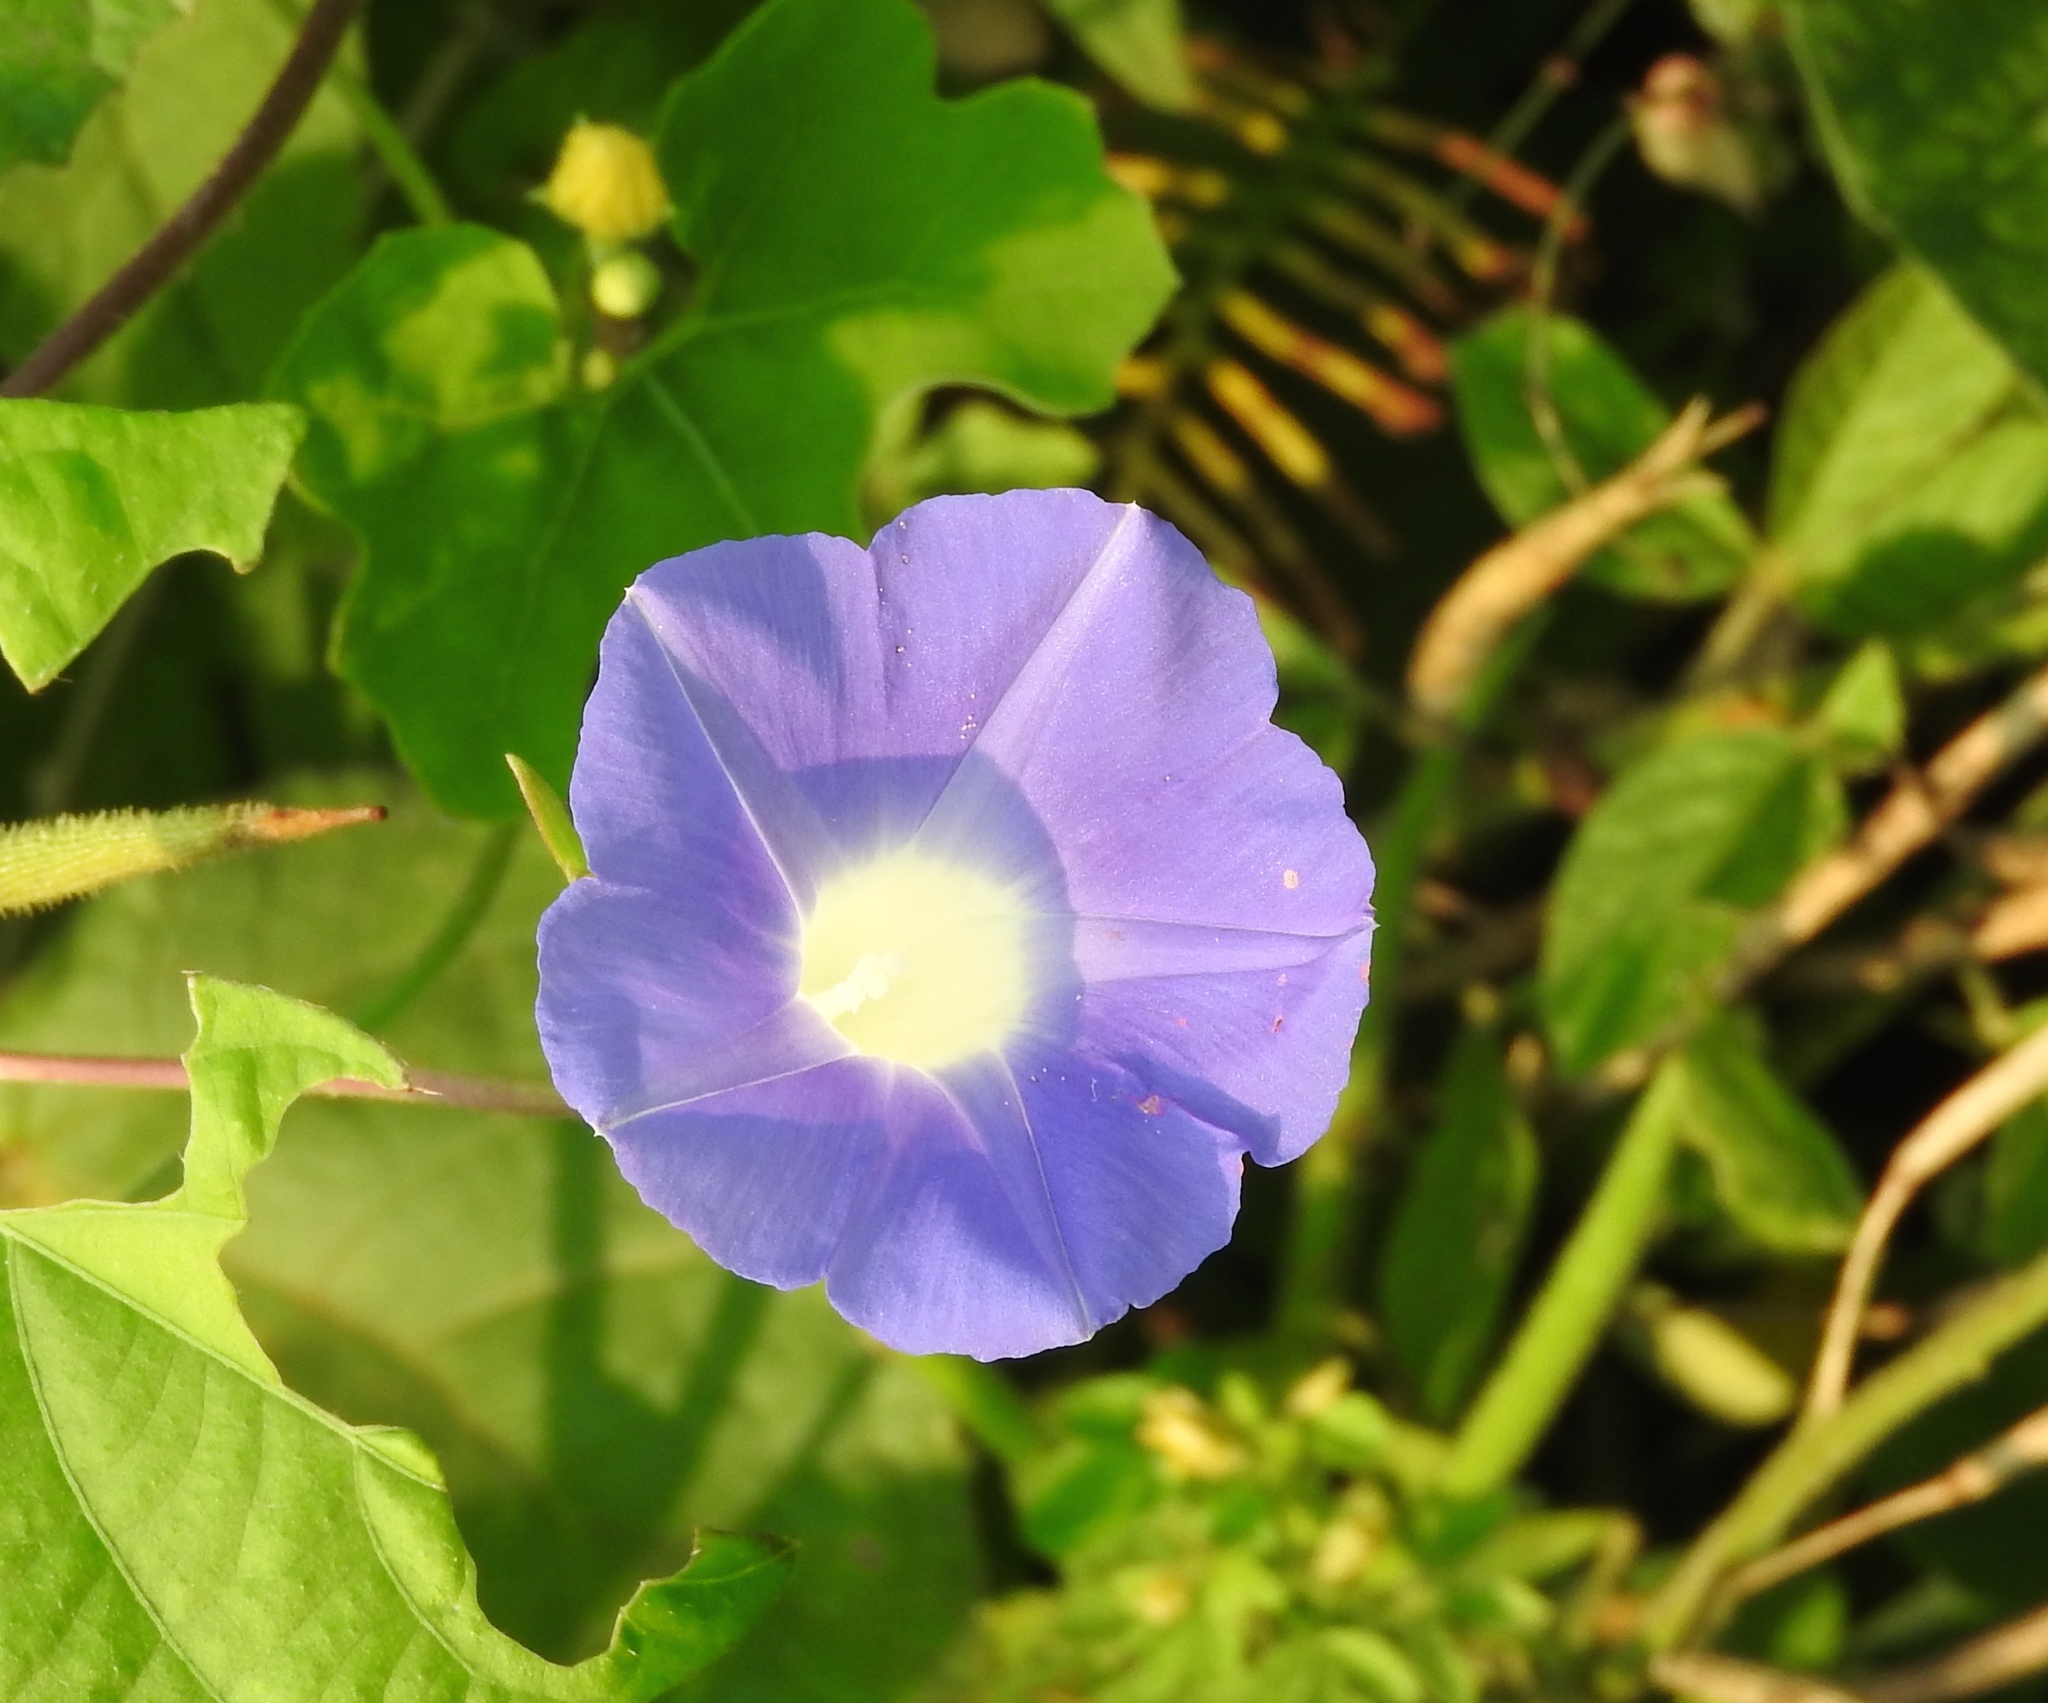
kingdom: Plantae
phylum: Tracheophyta
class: Magnoliopsida
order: Solanales
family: Convolvulaceae
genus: Ipomoea
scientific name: Ipomoea nil
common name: Japanese morning-glory
